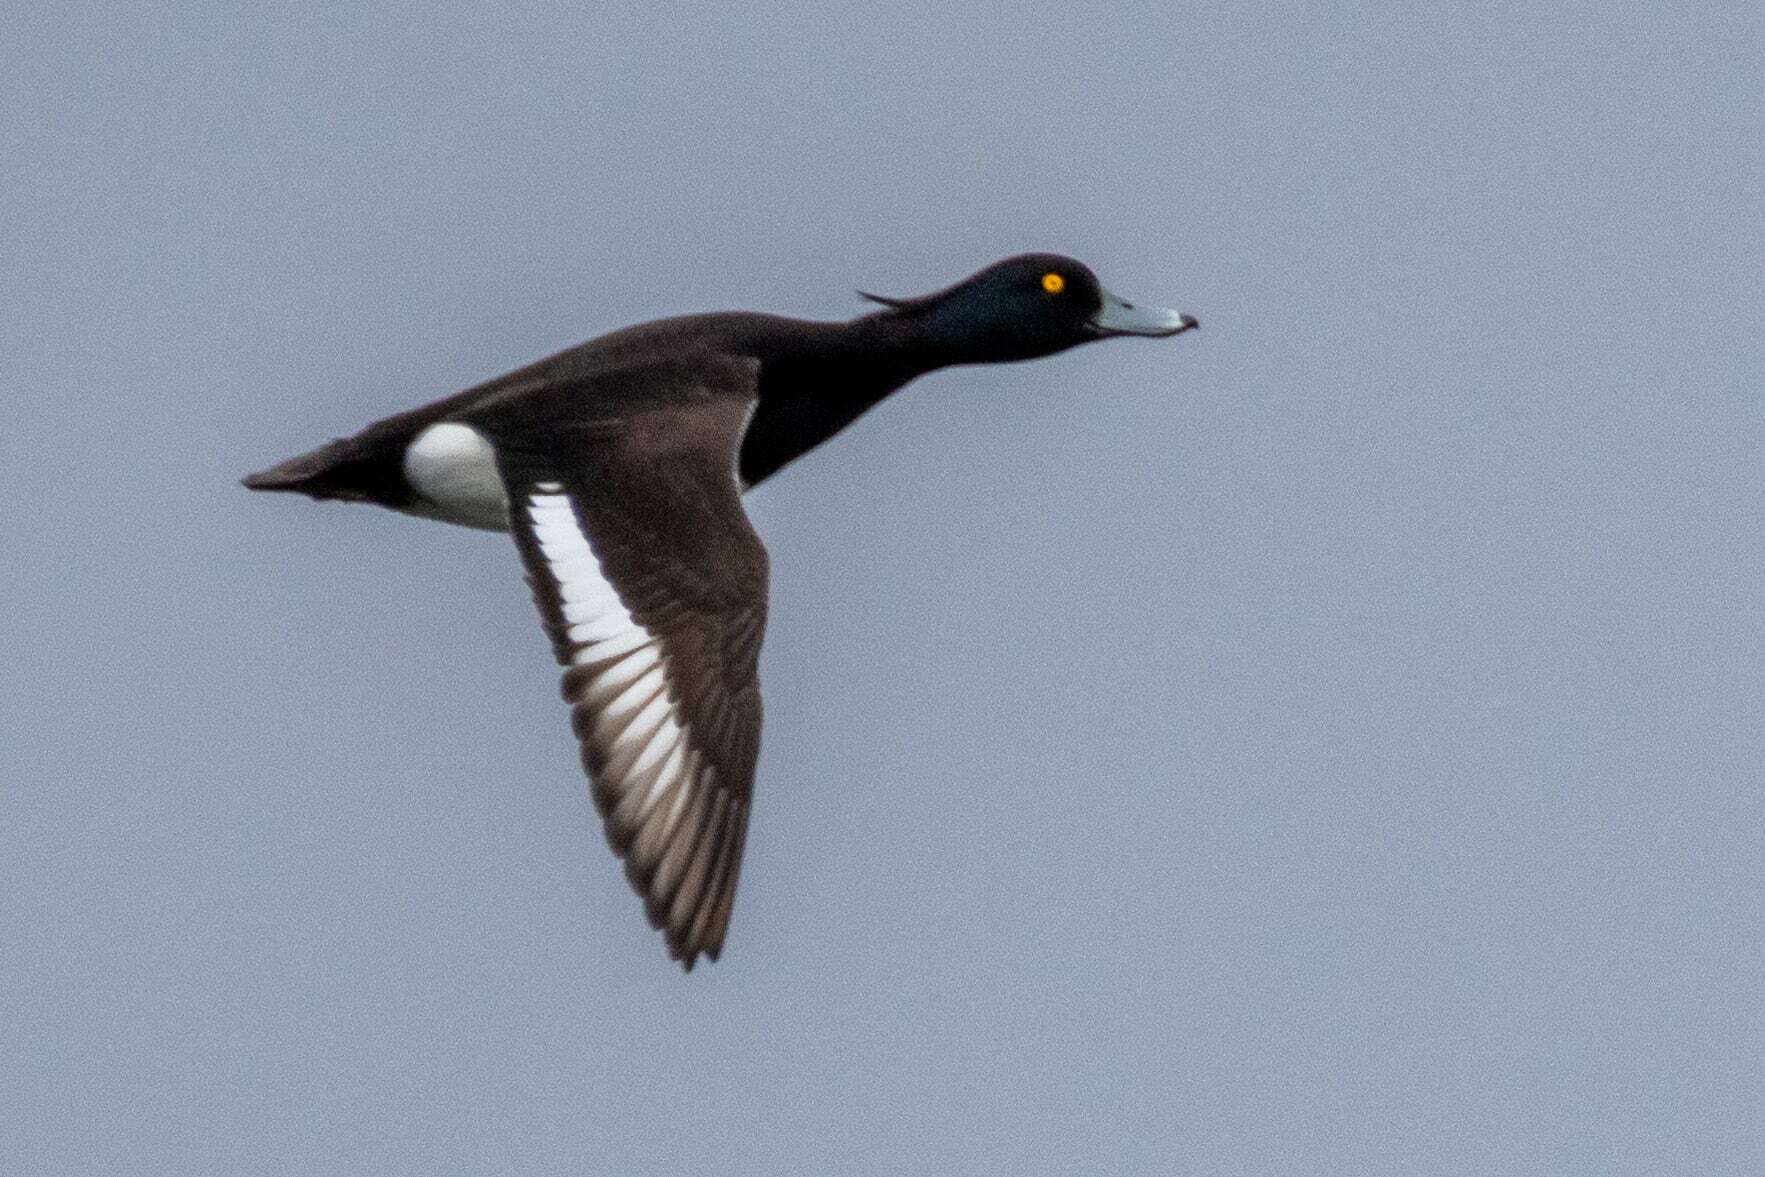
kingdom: Animalia
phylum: Chordata
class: Aves
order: Anseriformes
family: Anatidae
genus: Aythya
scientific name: Aythya fuligula
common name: Tufted duck
